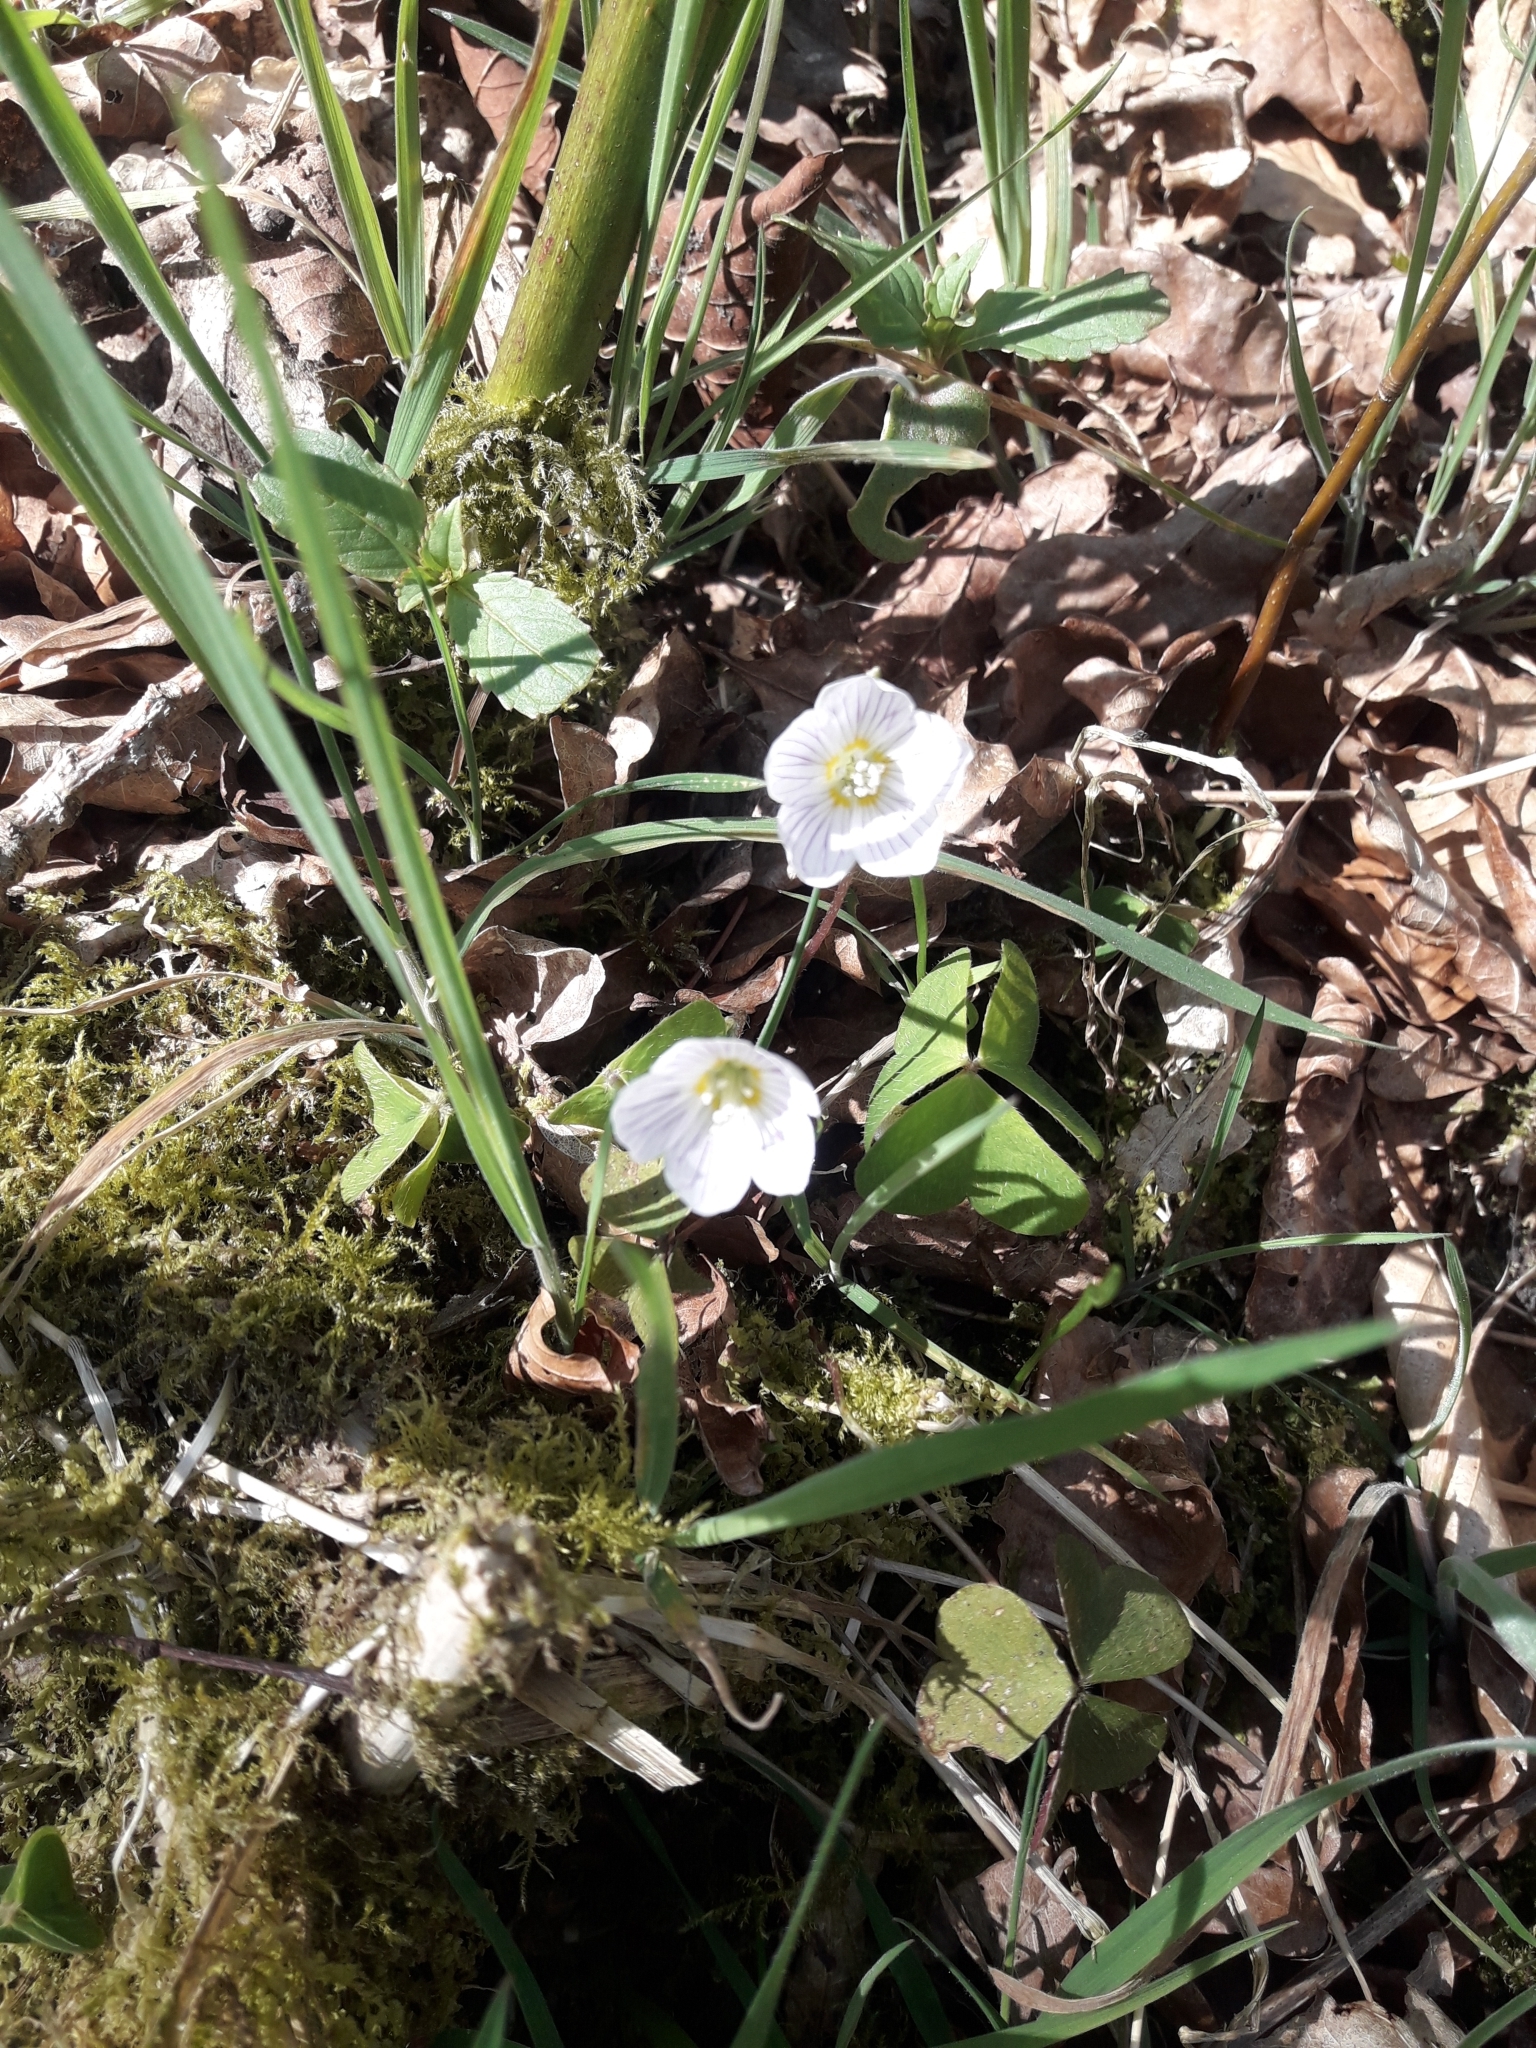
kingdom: Plantae
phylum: Tracheophyta
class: Magnoliopsida
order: Oxalidales
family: Oxalidaceae
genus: Oxalis
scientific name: Oxalis acetosella
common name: Wood-sorrel
